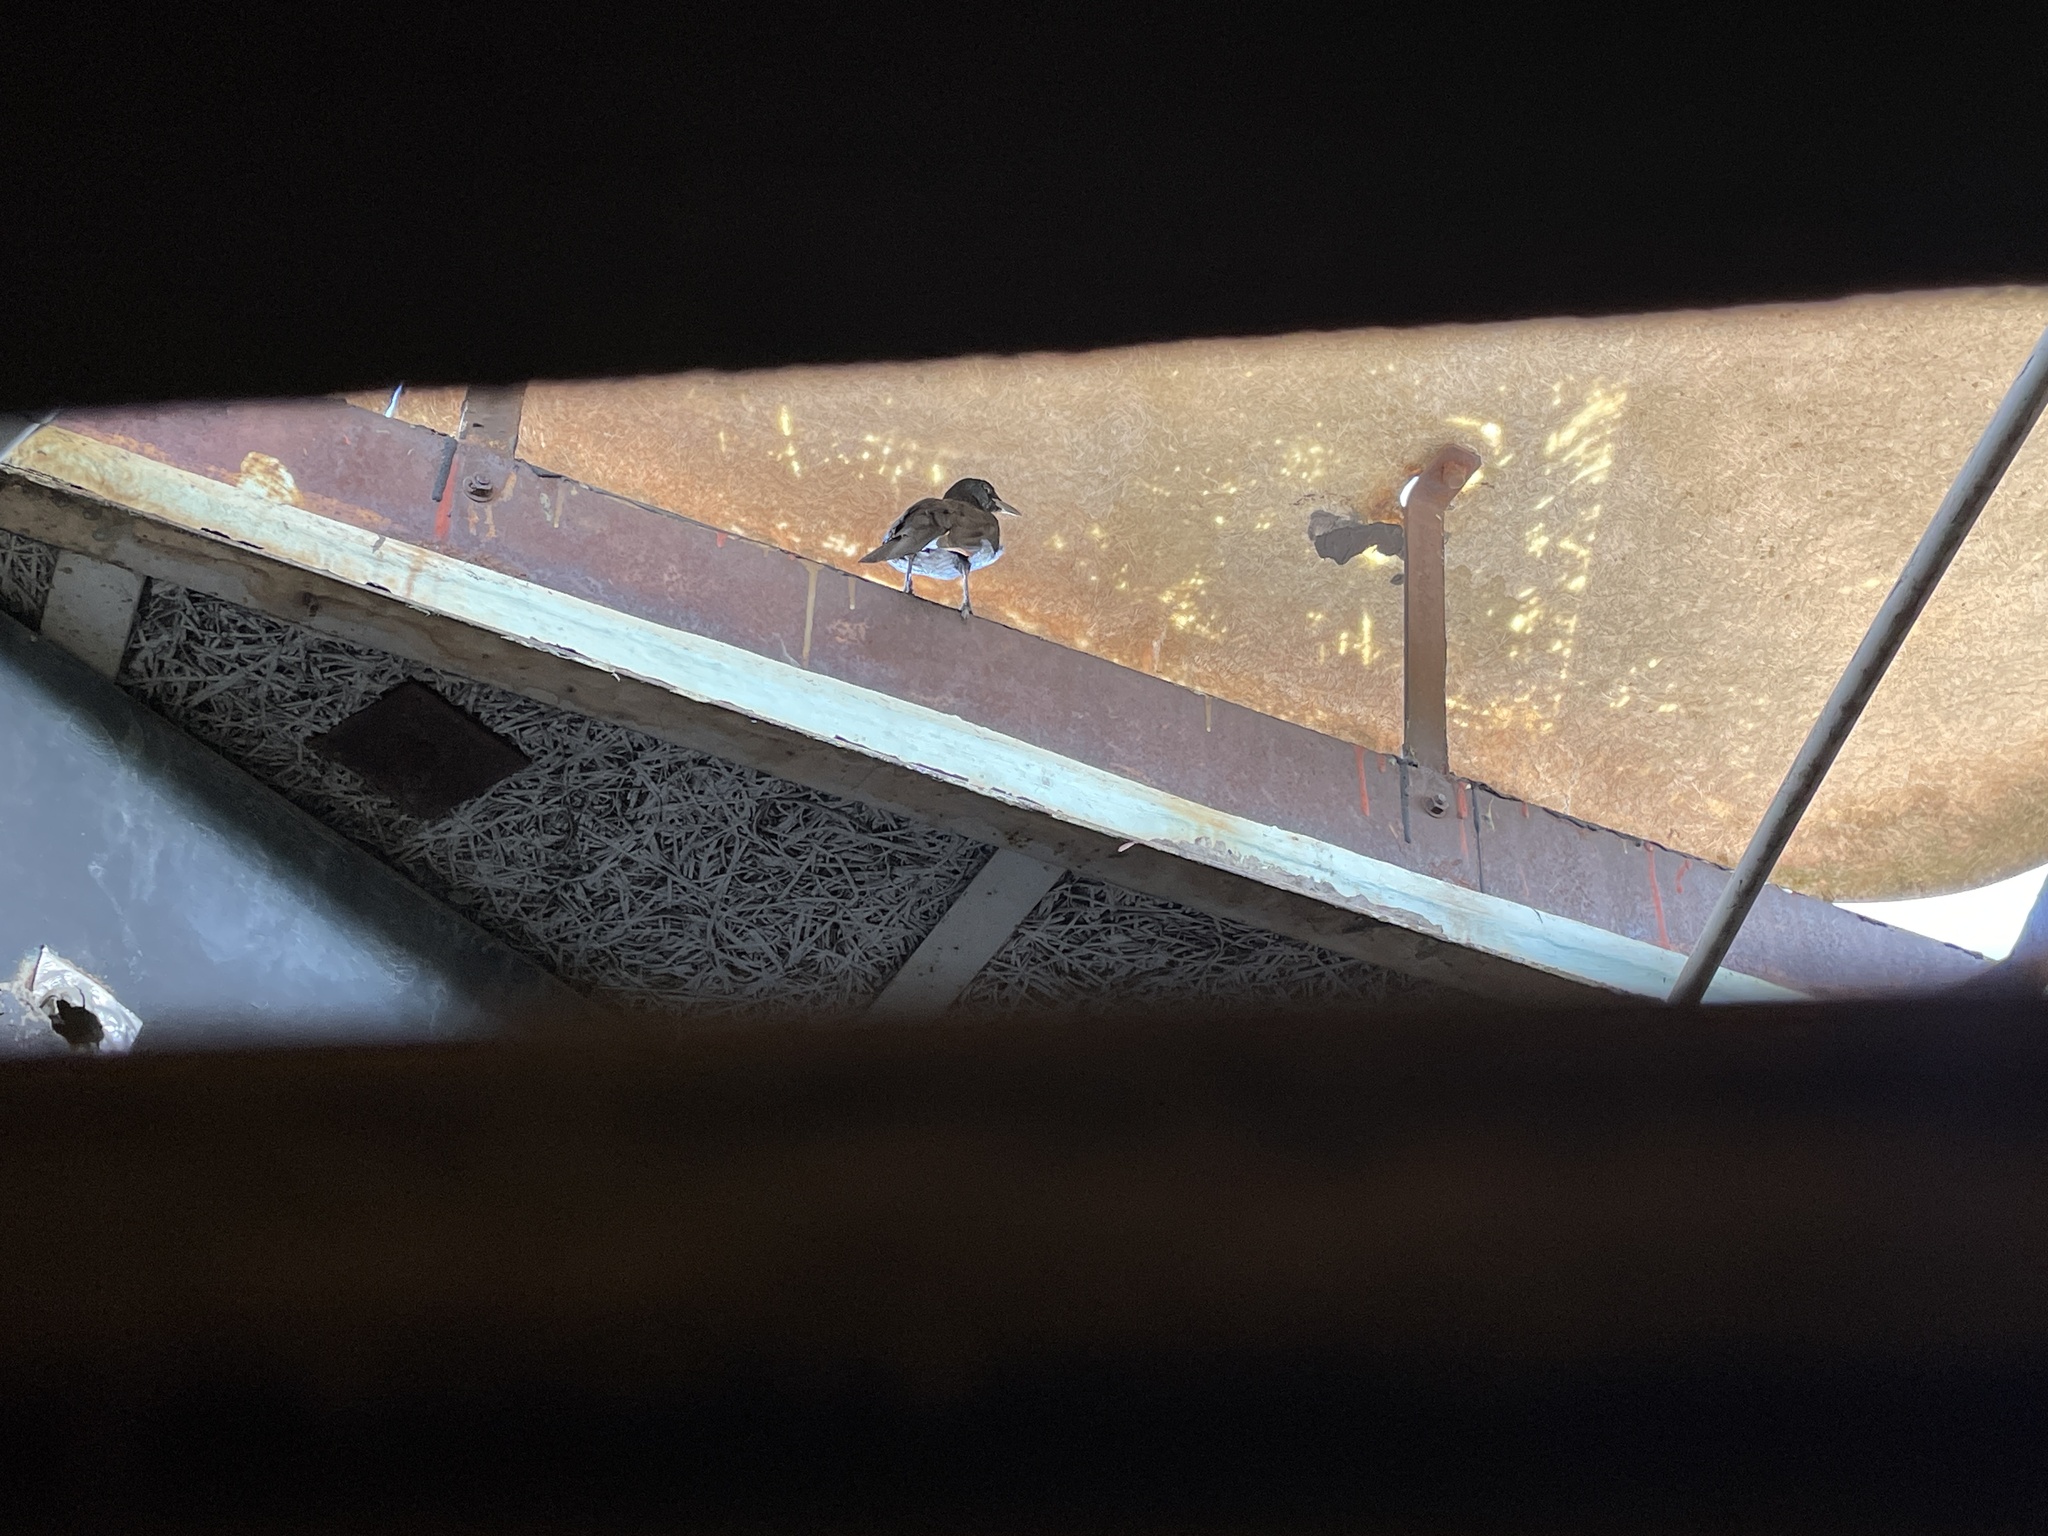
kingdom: Animalia
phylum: Chordata
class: Aves
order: Passeriformes
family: Sturnidae
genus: Lamprotornis
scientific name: Lamprotornis bicolor
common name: Pied starling
